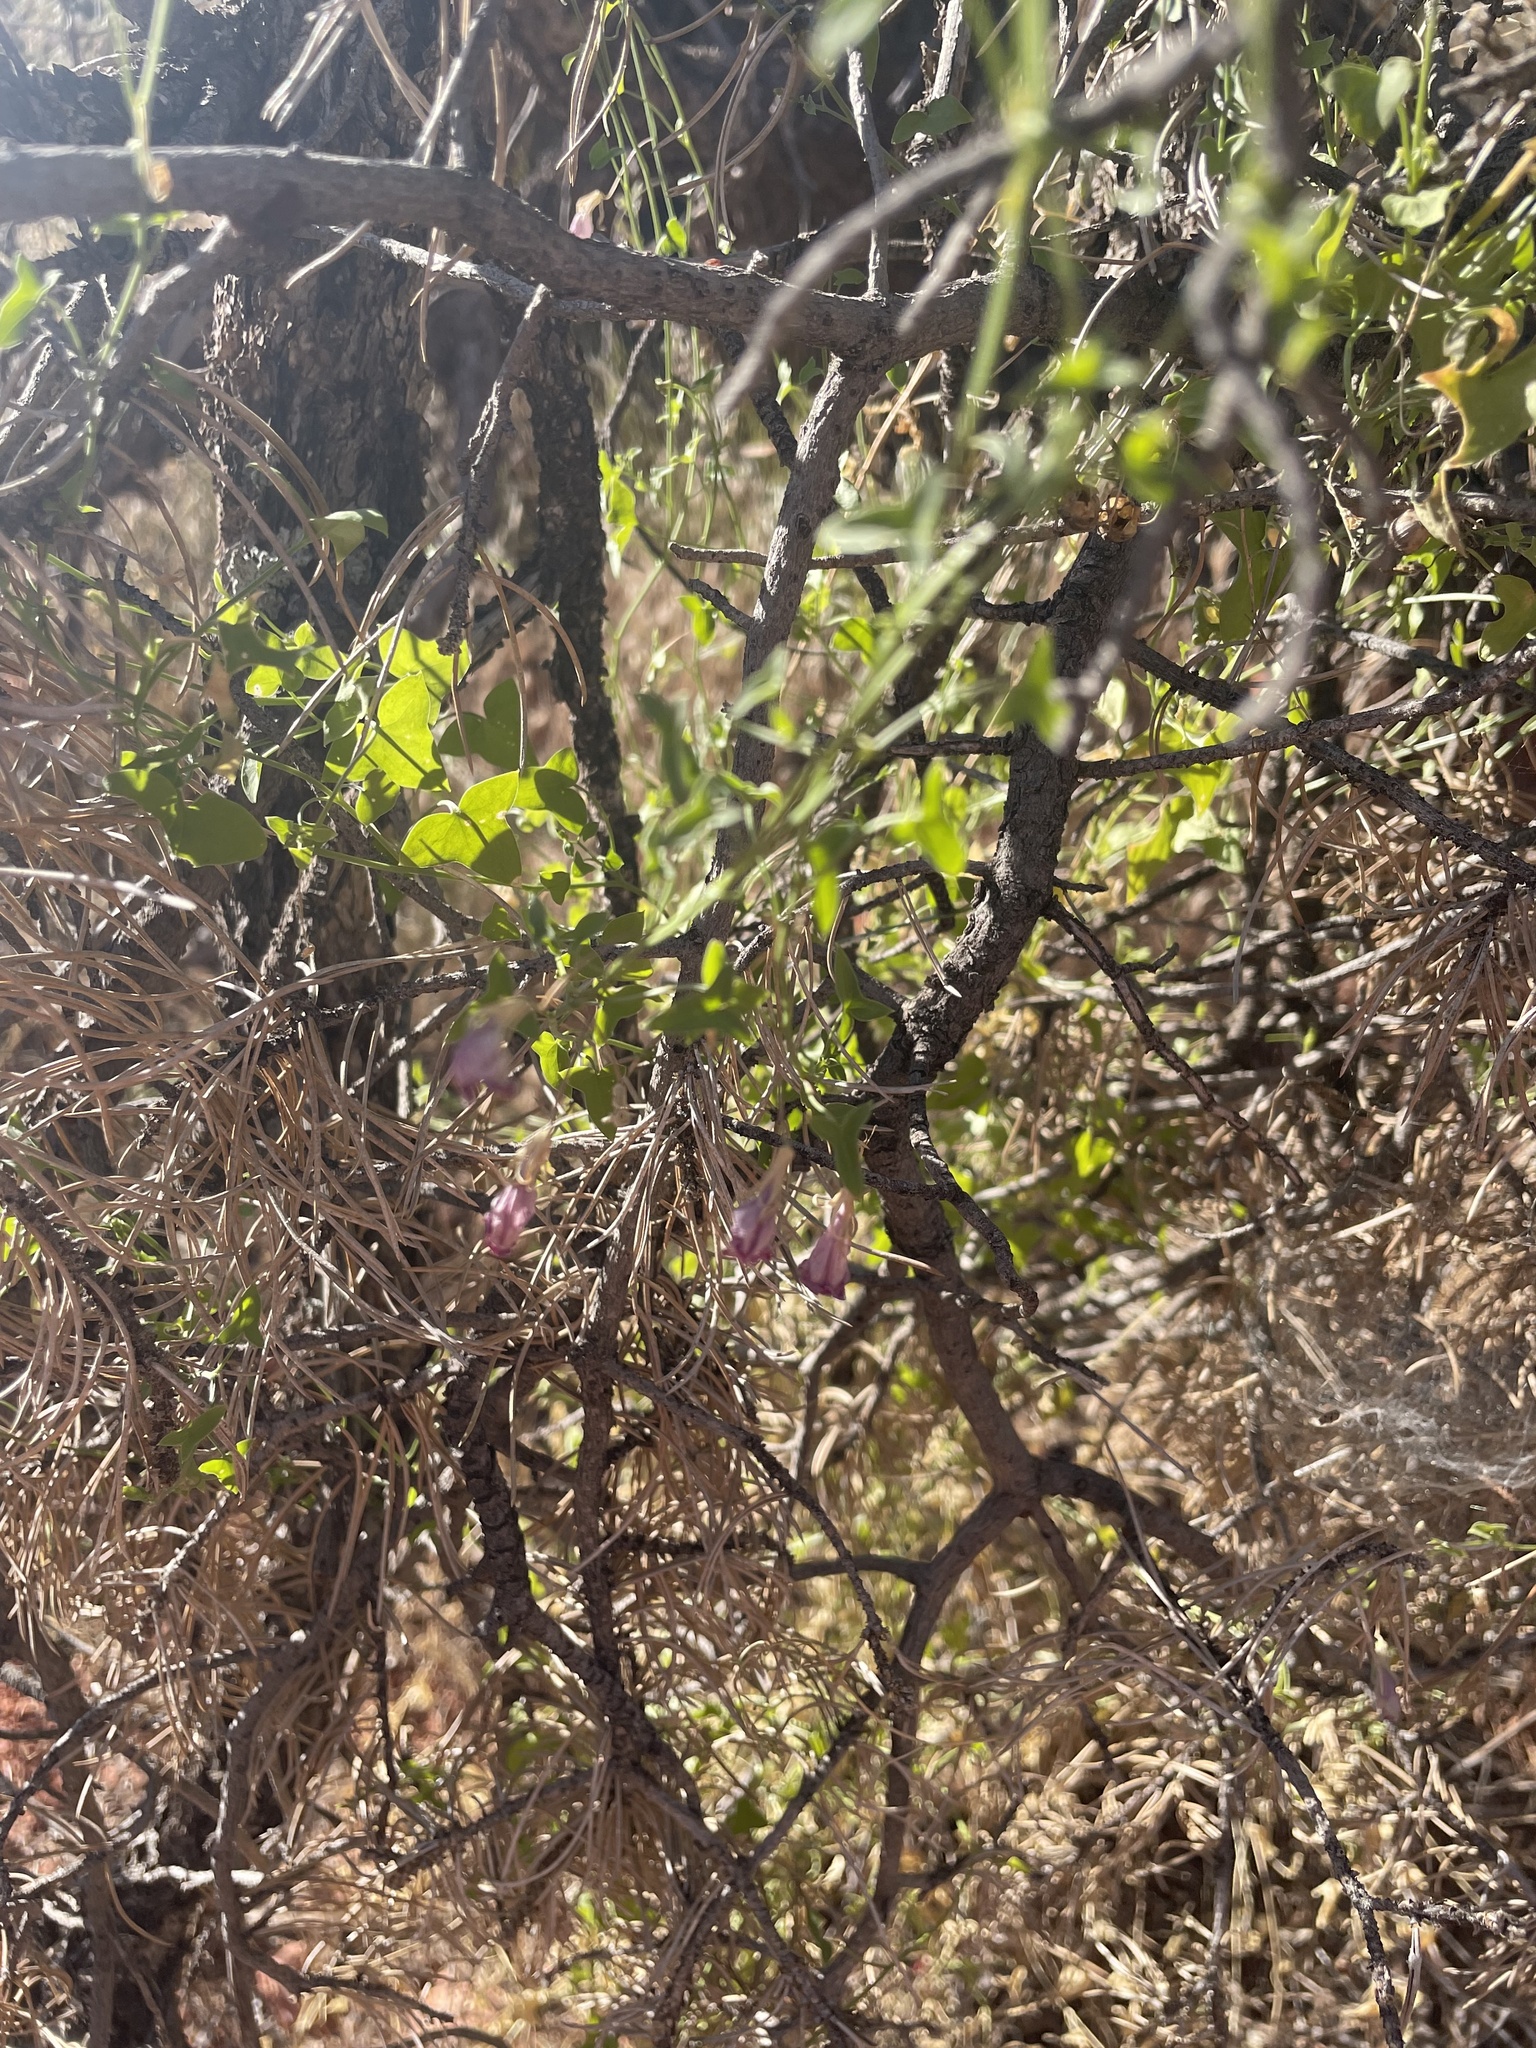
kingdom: Plantae
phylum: Tracheophyta
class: Magnoliopsida
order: Lamiales
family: Plantaginaceae
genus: Maurandella
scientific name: Maurandella antirrhiniflora
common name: Violet twining-snapdragon
